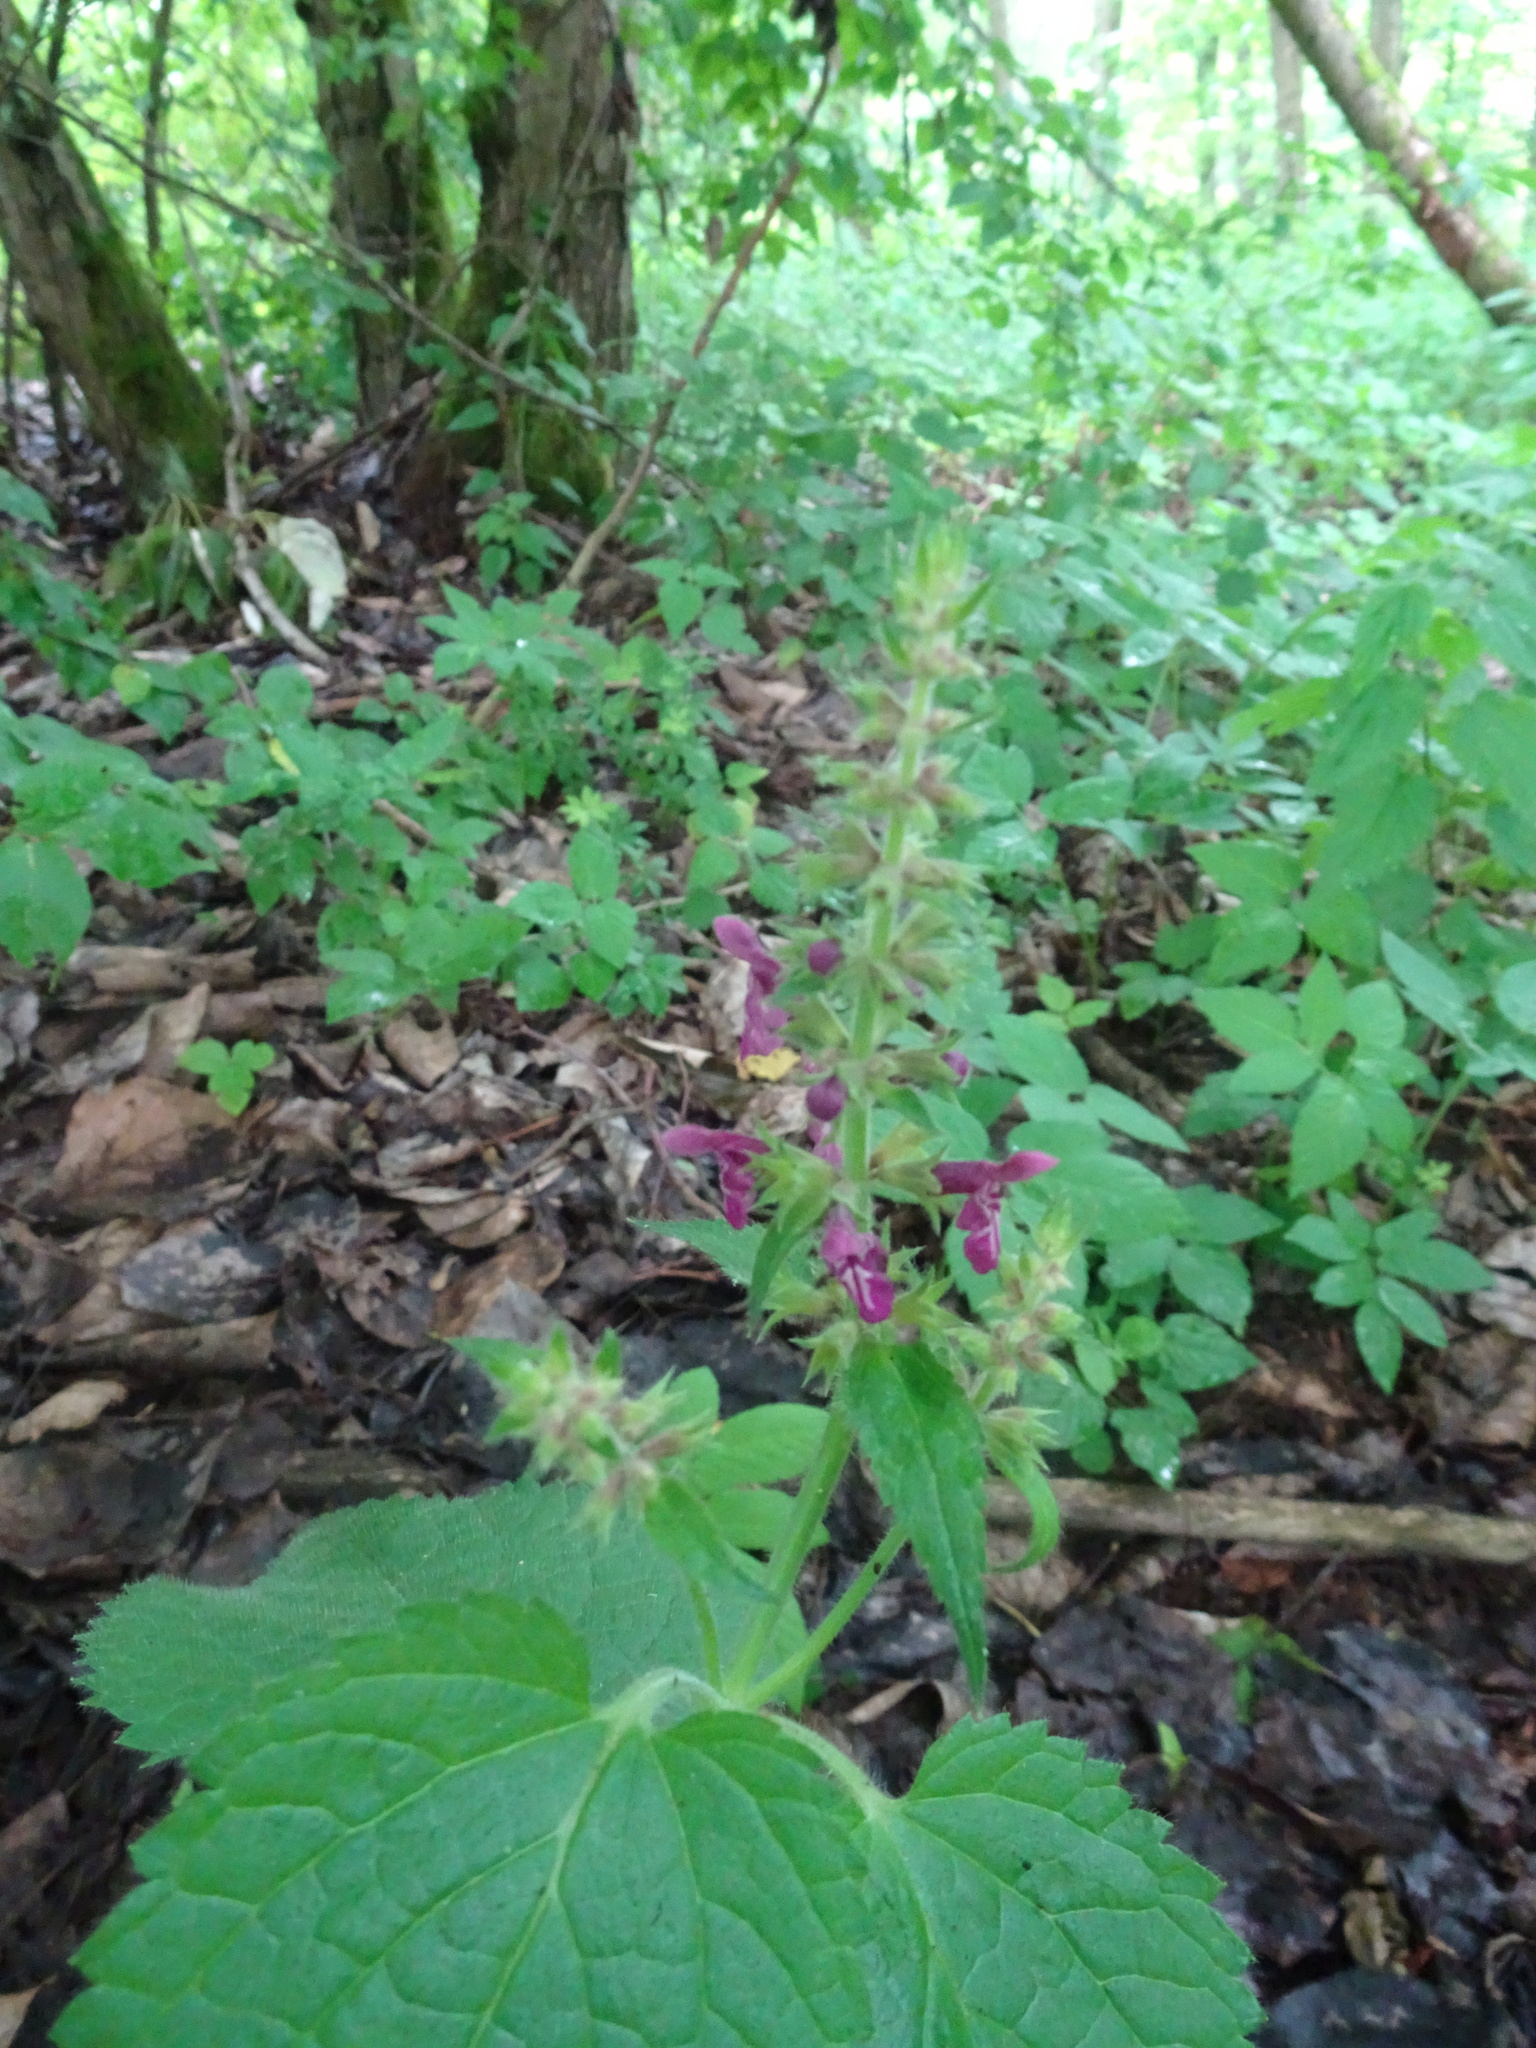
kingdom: Plantae
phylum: Tracheophyta
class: Magnoliopsida
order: Lamiales
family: Lamiaceae
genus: Stachys
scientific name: Stachys sylvatica
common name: Hedge woundwort
